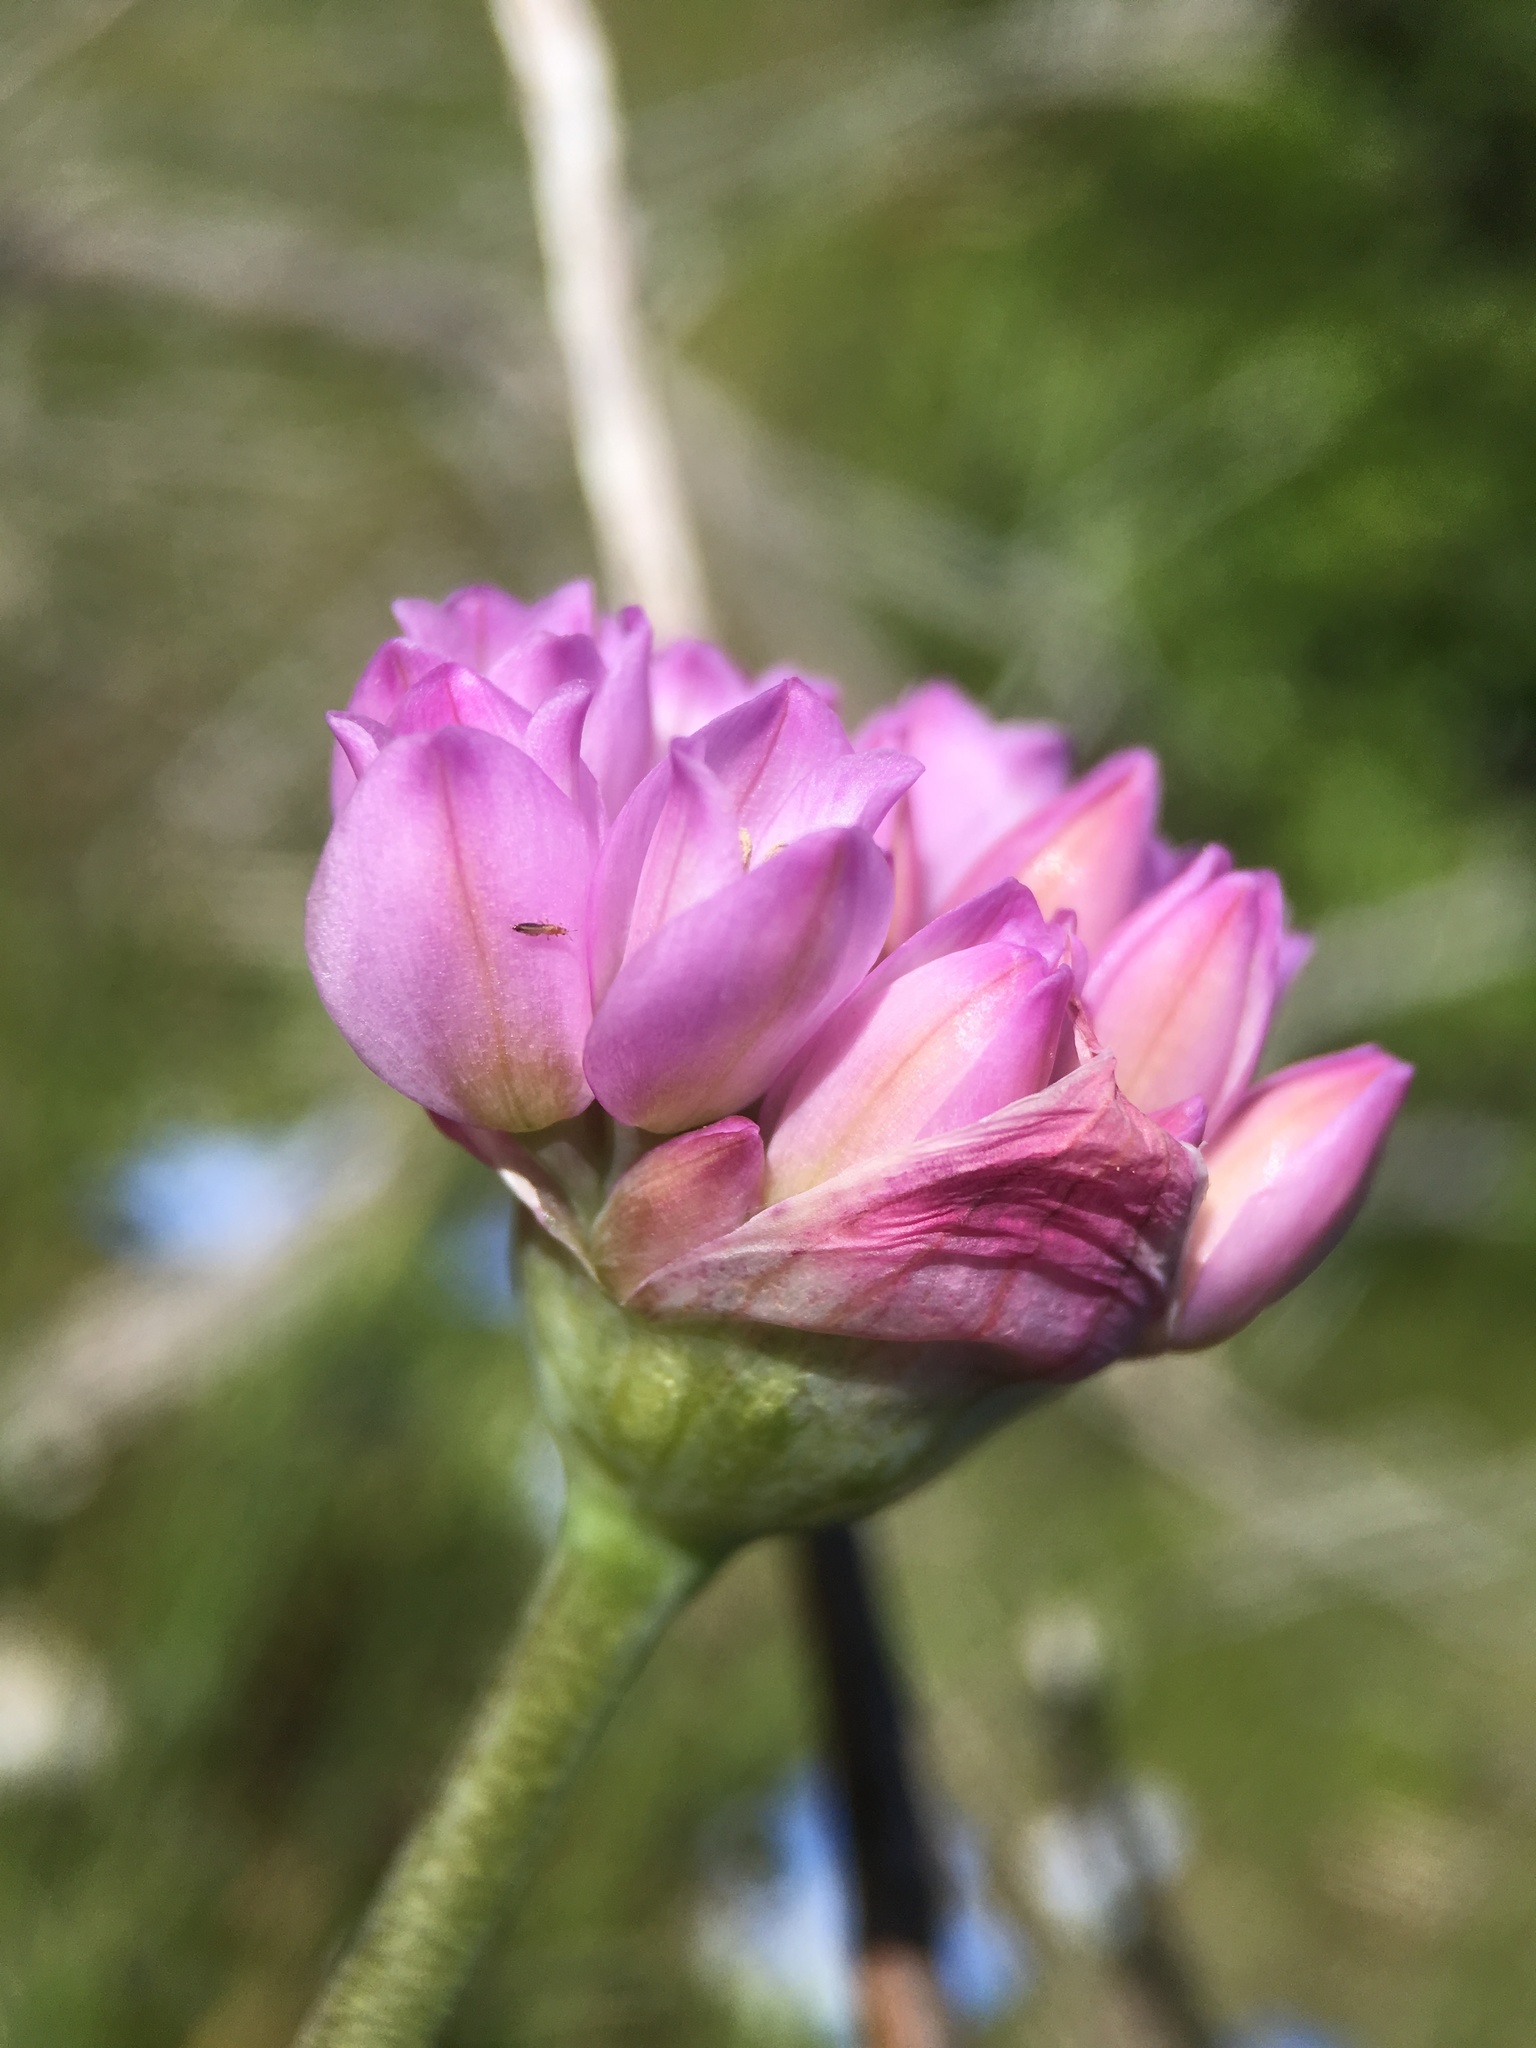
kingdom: Plantae
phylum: Tracheophyta
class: Liliopsida
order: Asparagales
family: Amaryllidaceae
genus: Allium
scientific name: Allium serra
